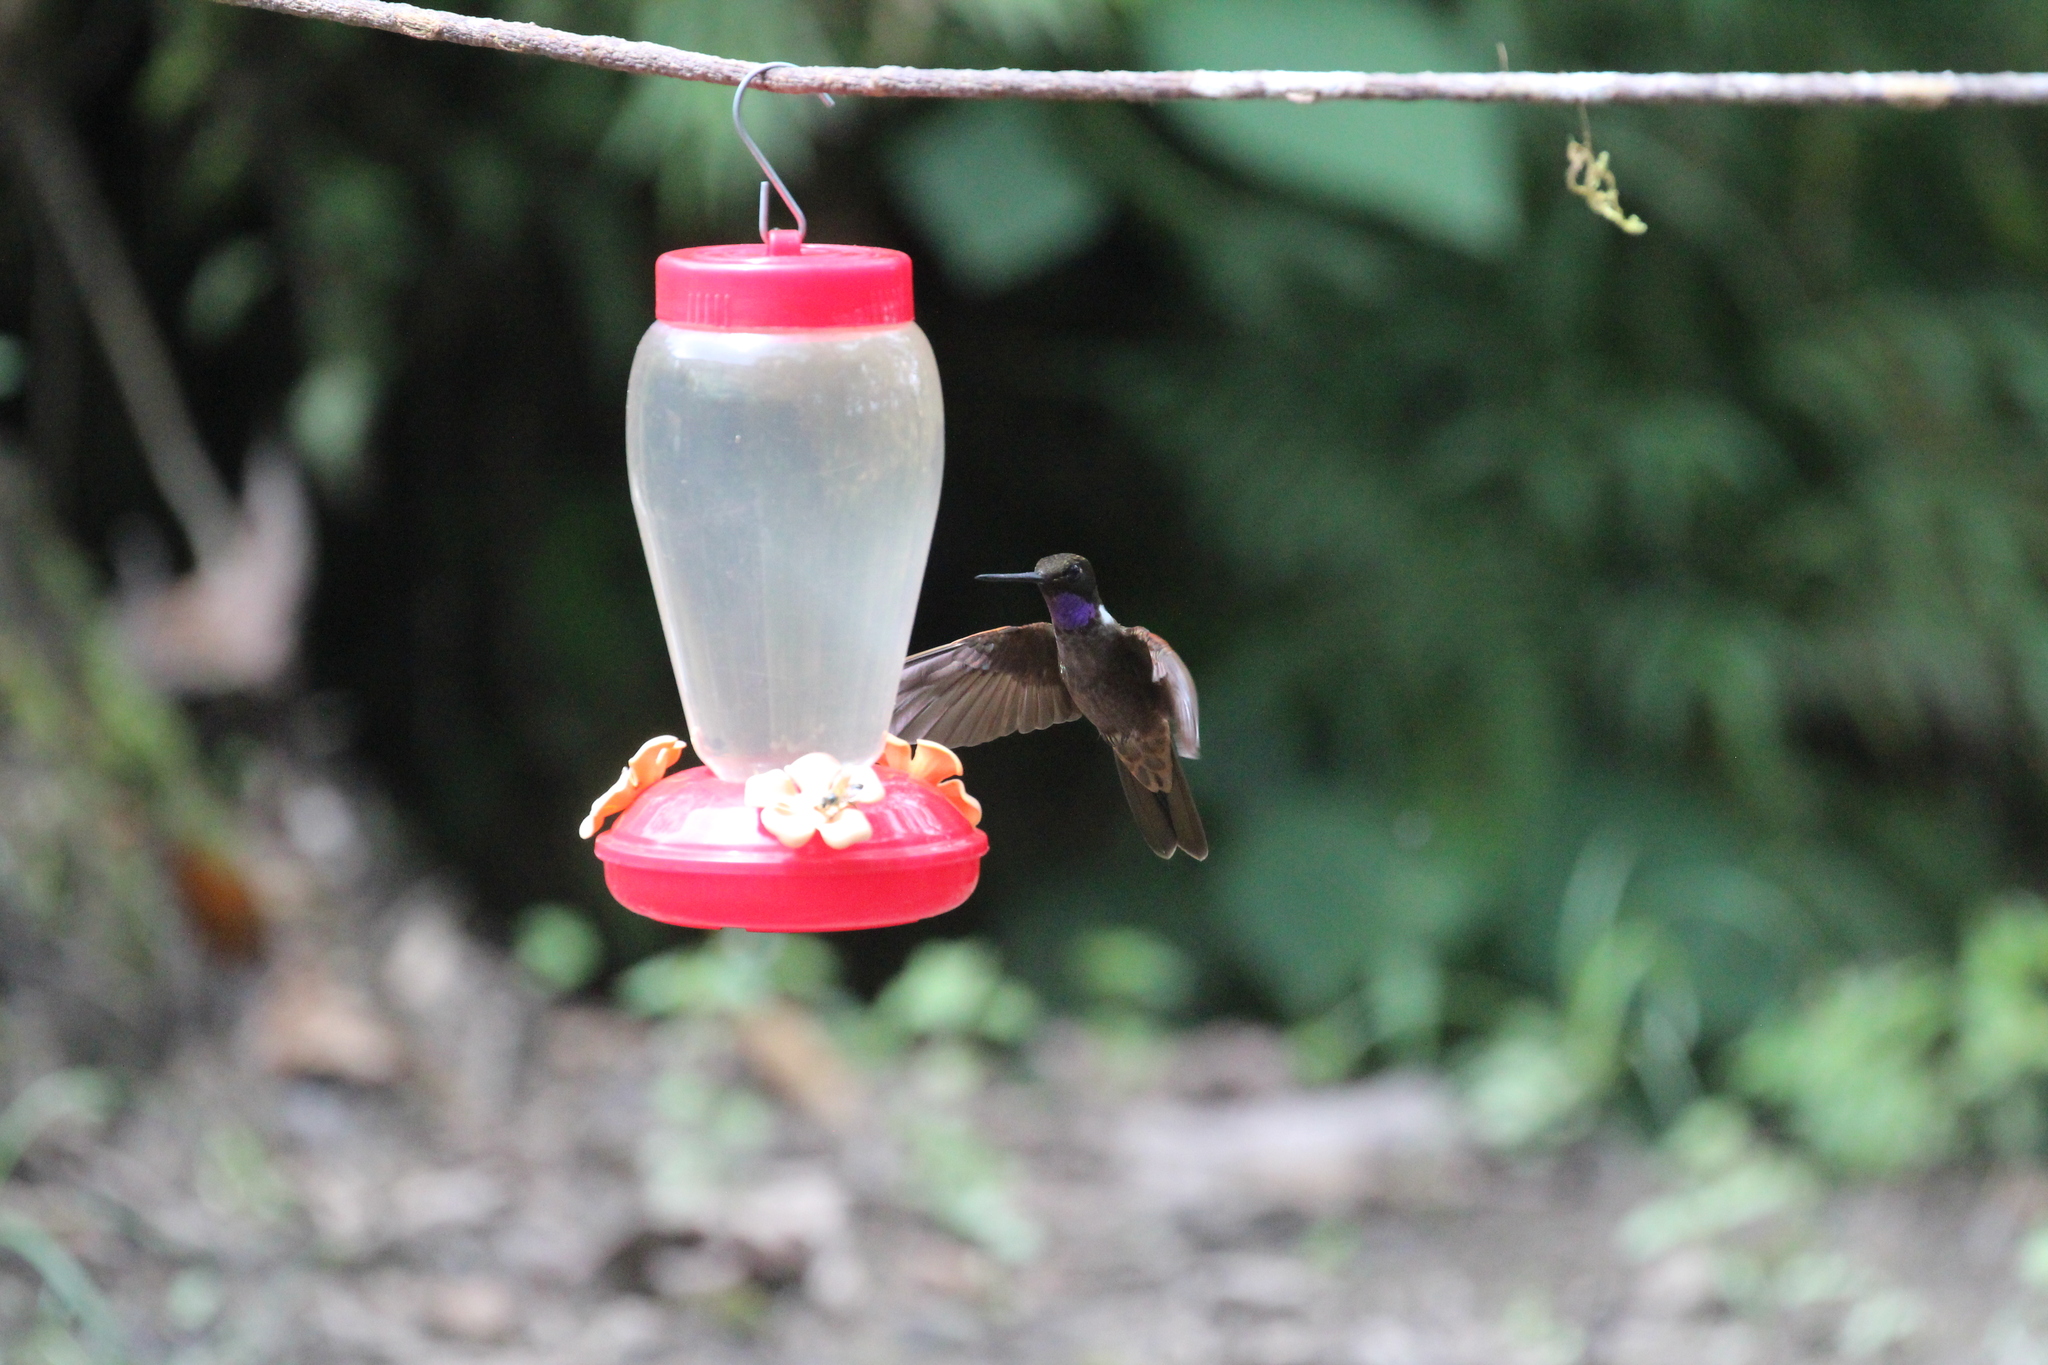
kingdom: Animalia
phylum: Chordata
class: Aves
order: Apodiformes
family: Trochilidae
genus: Coeligena
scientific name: Coeligena wilsoni
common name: Brown inca
